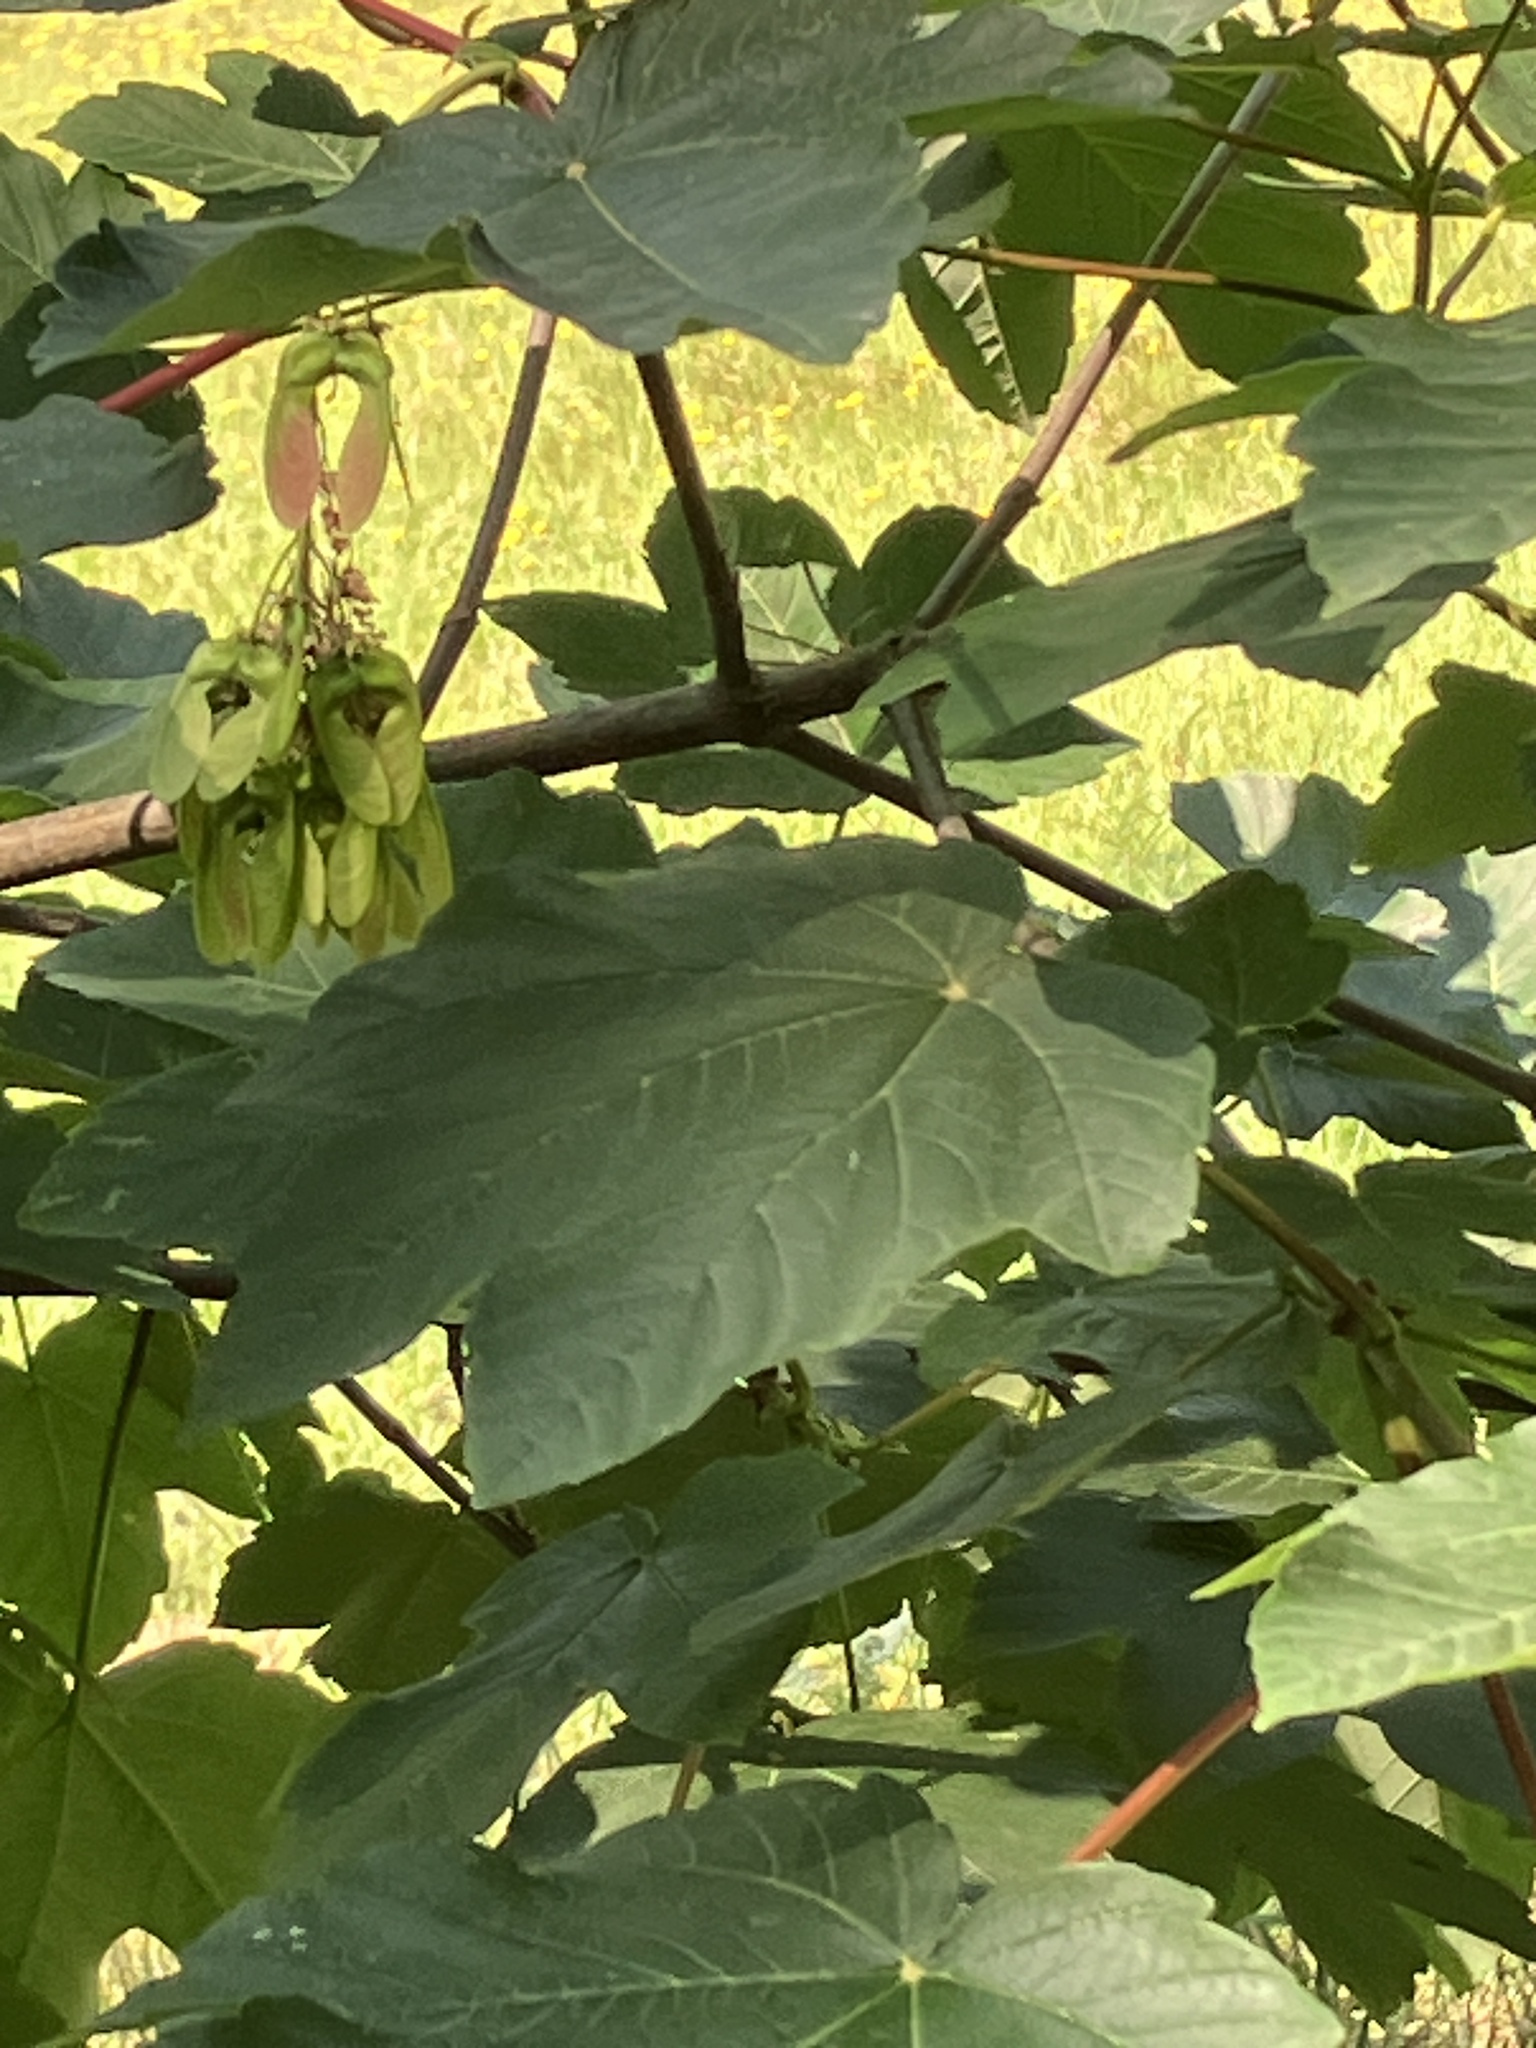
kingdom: Plantae
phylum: Tracheophyta
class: Magnoliopsida
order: Sapindales
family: Sapindaceae
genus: Acer
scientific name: Acer pseudoplatanus
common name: Sycamore
